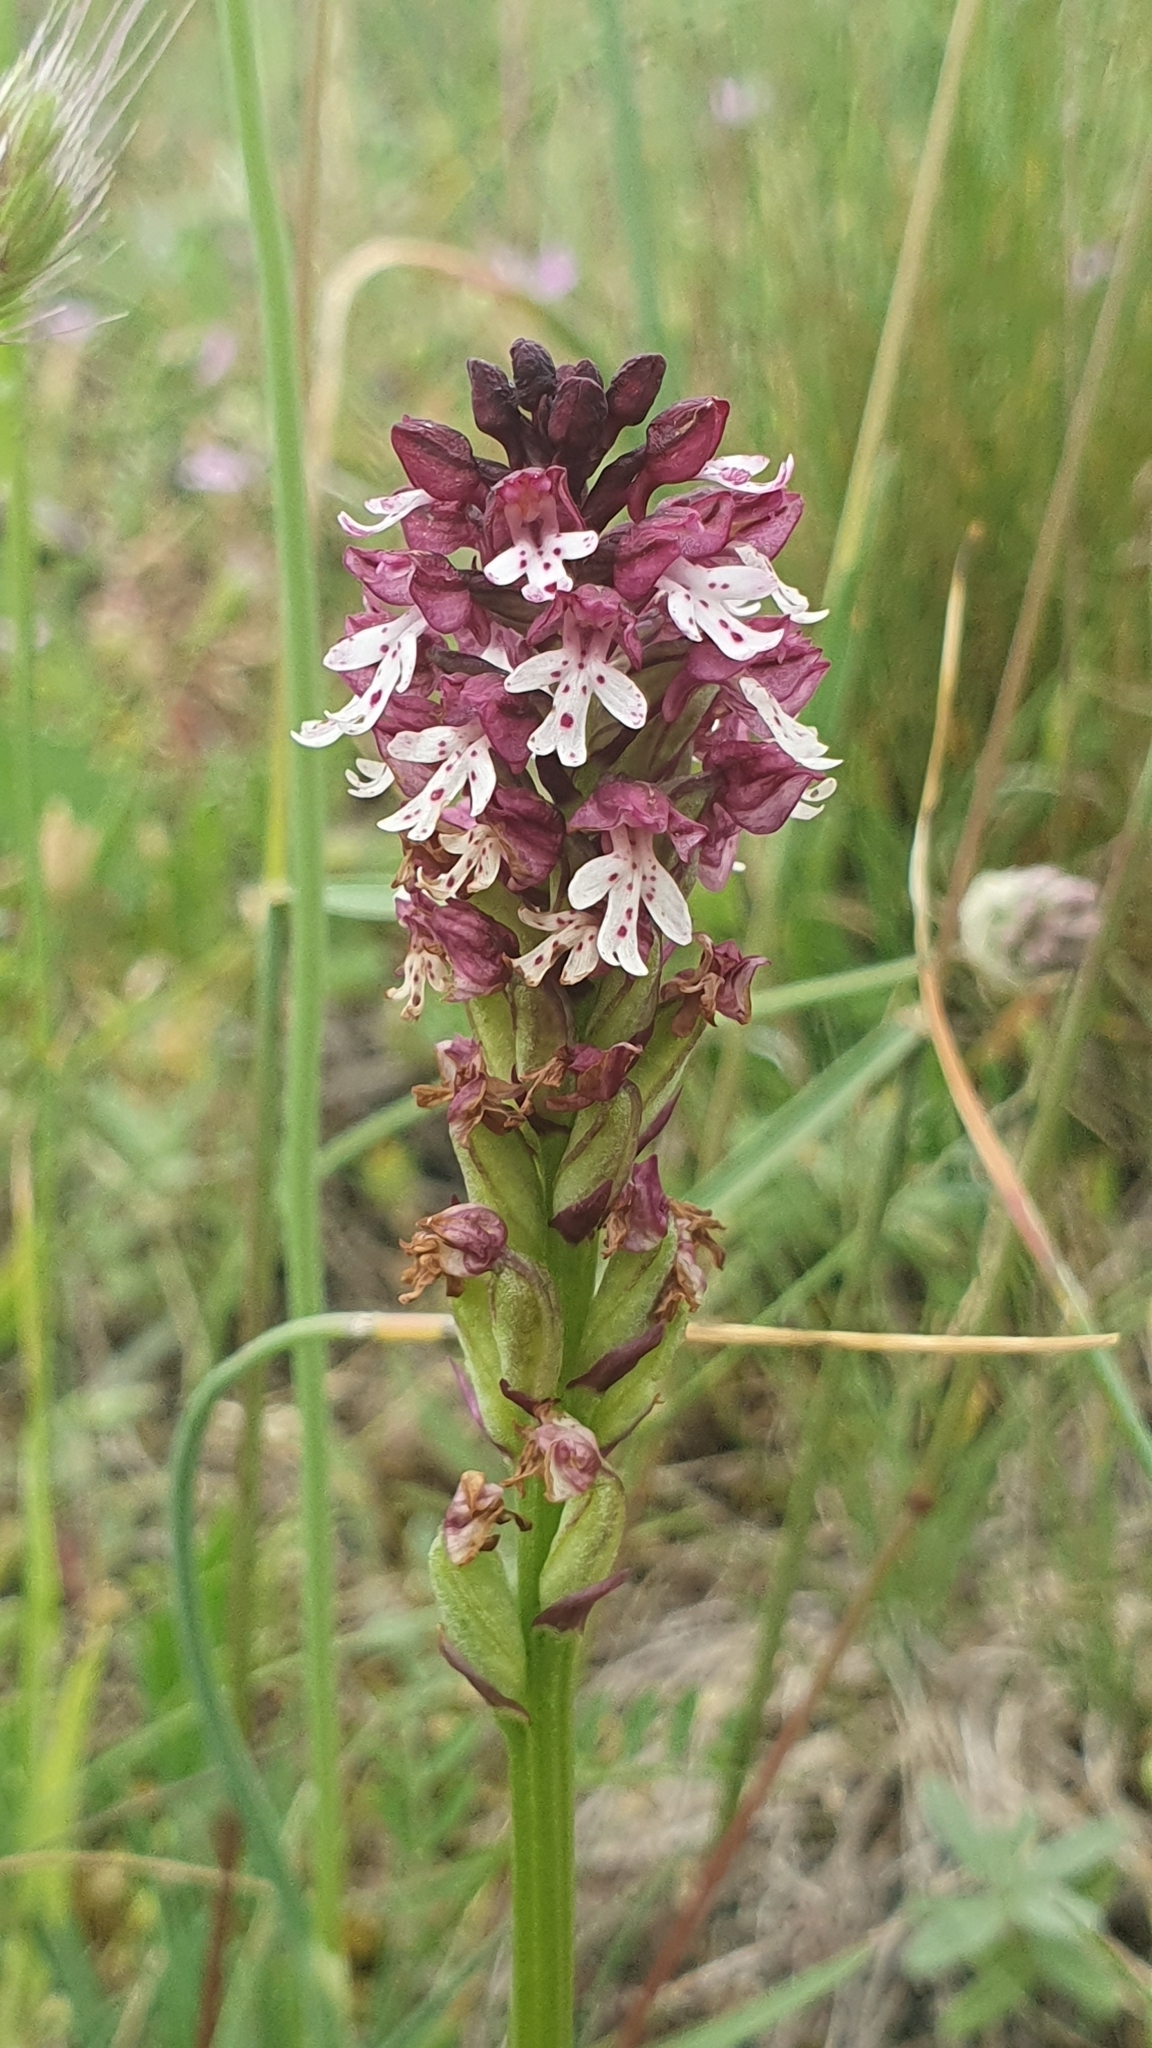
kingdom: Plantae
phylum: Tracheophyta
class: Liliopsida
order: Asparagales
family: Orchidaceae
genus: Neotinea
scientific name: Neotinea ustulata
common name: Burnt orchid
